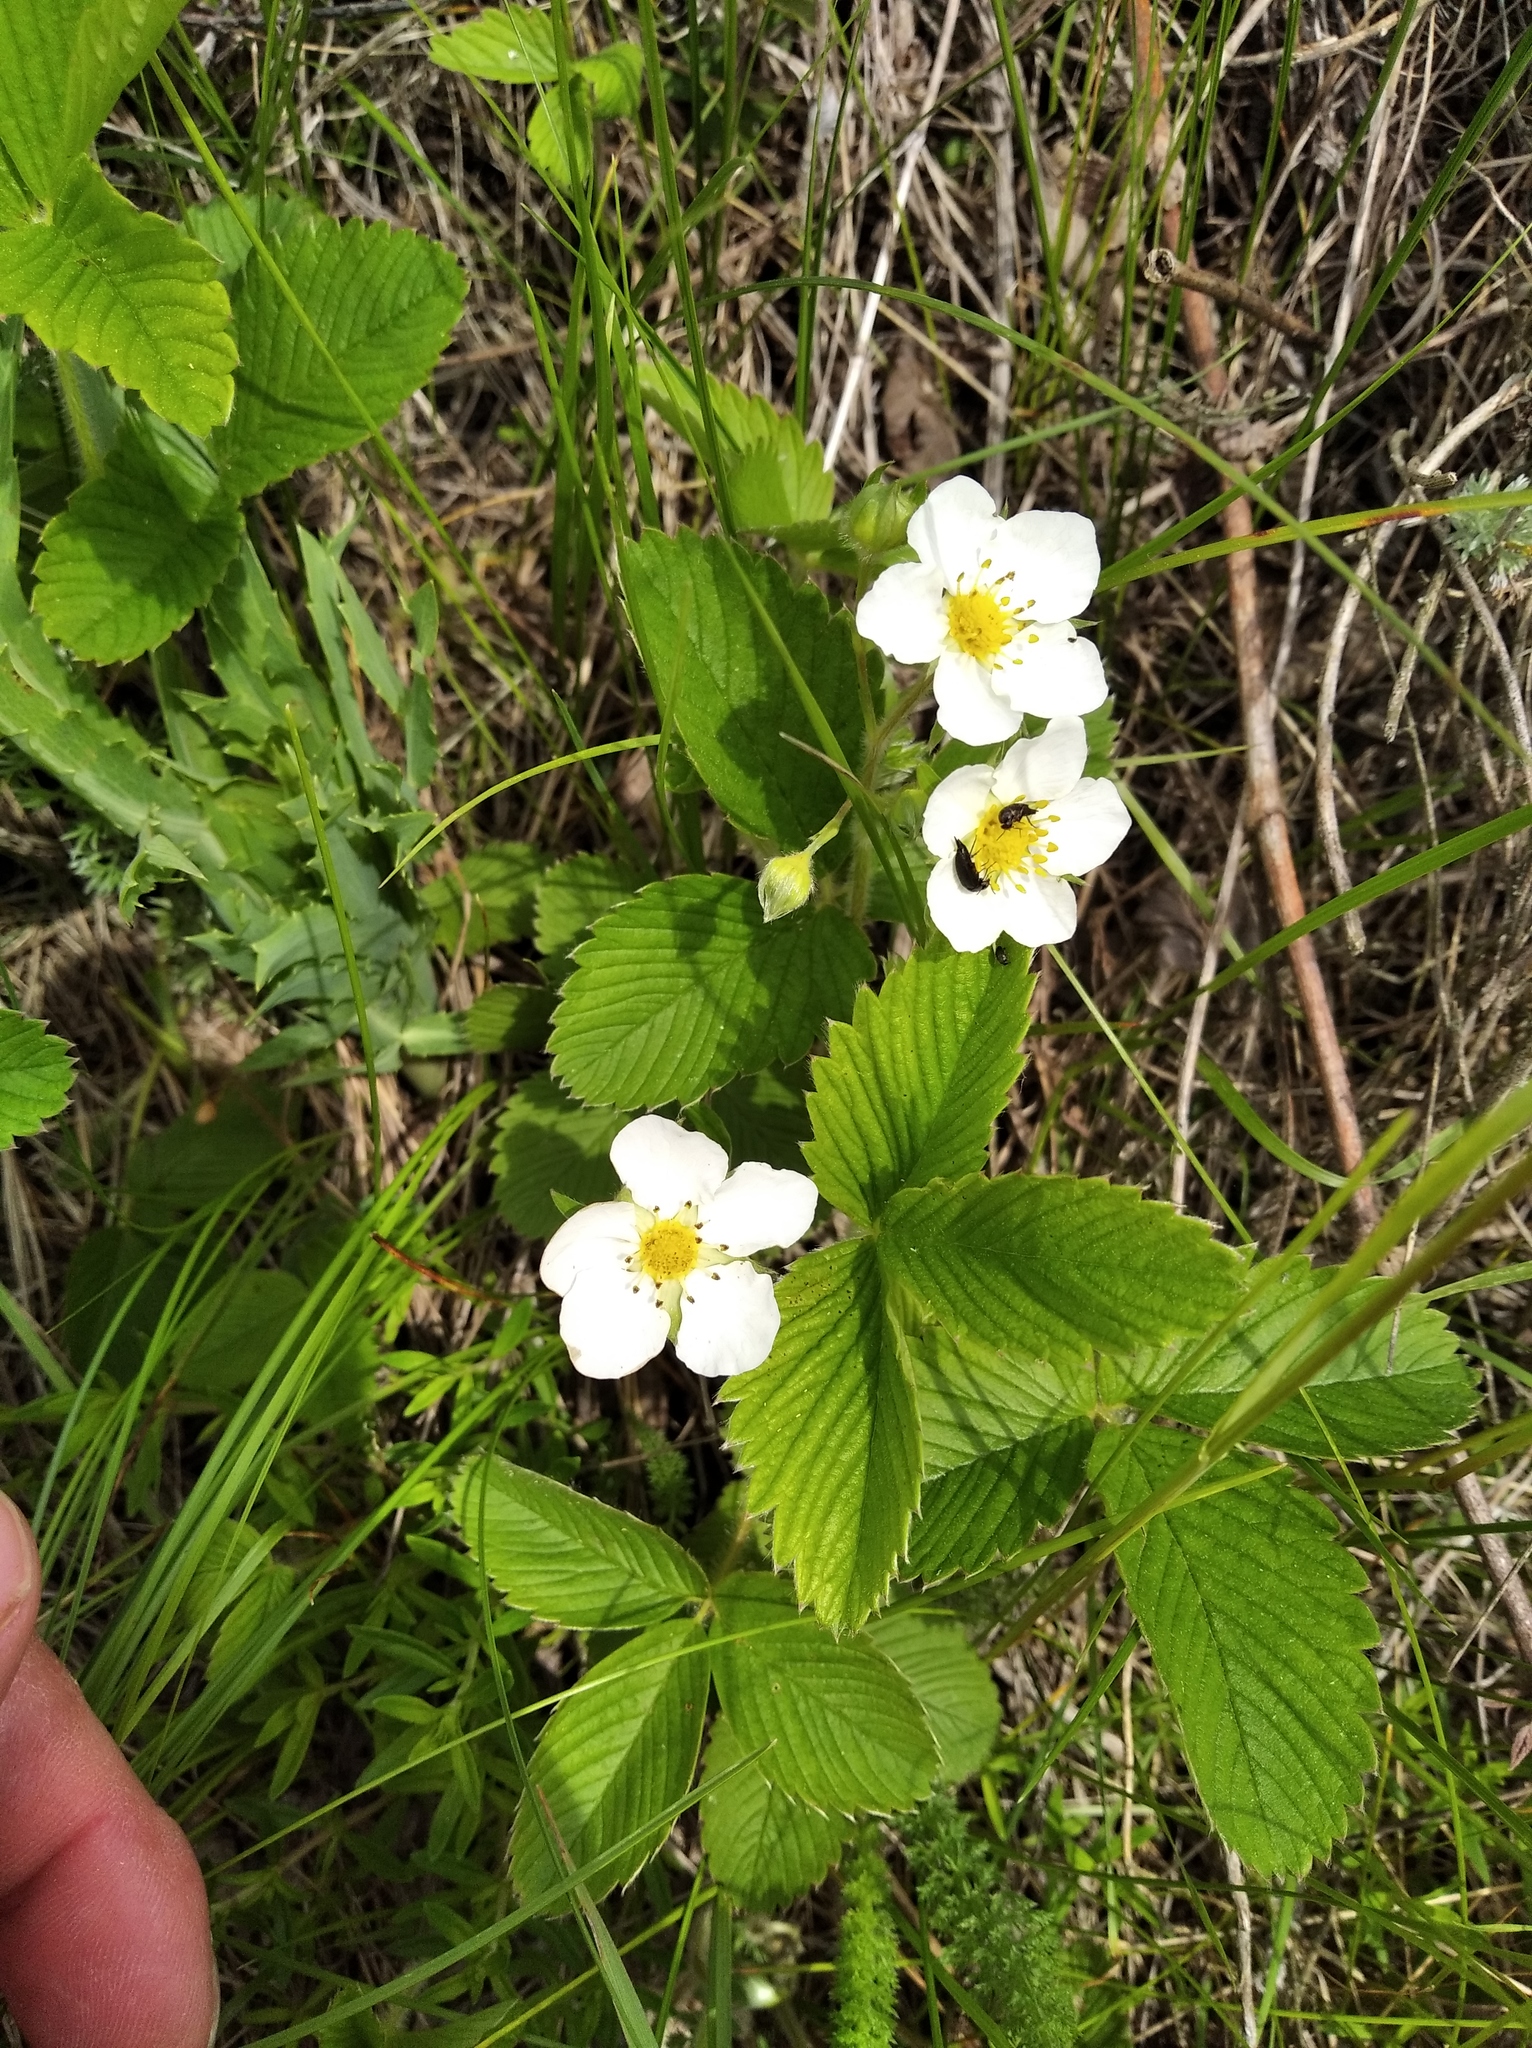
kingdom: Plantae
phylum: Tracheophyta
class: Magnoliopsida
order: Rosales
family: Rosaceae
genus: Fragaria
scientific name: Fragaria viridis
